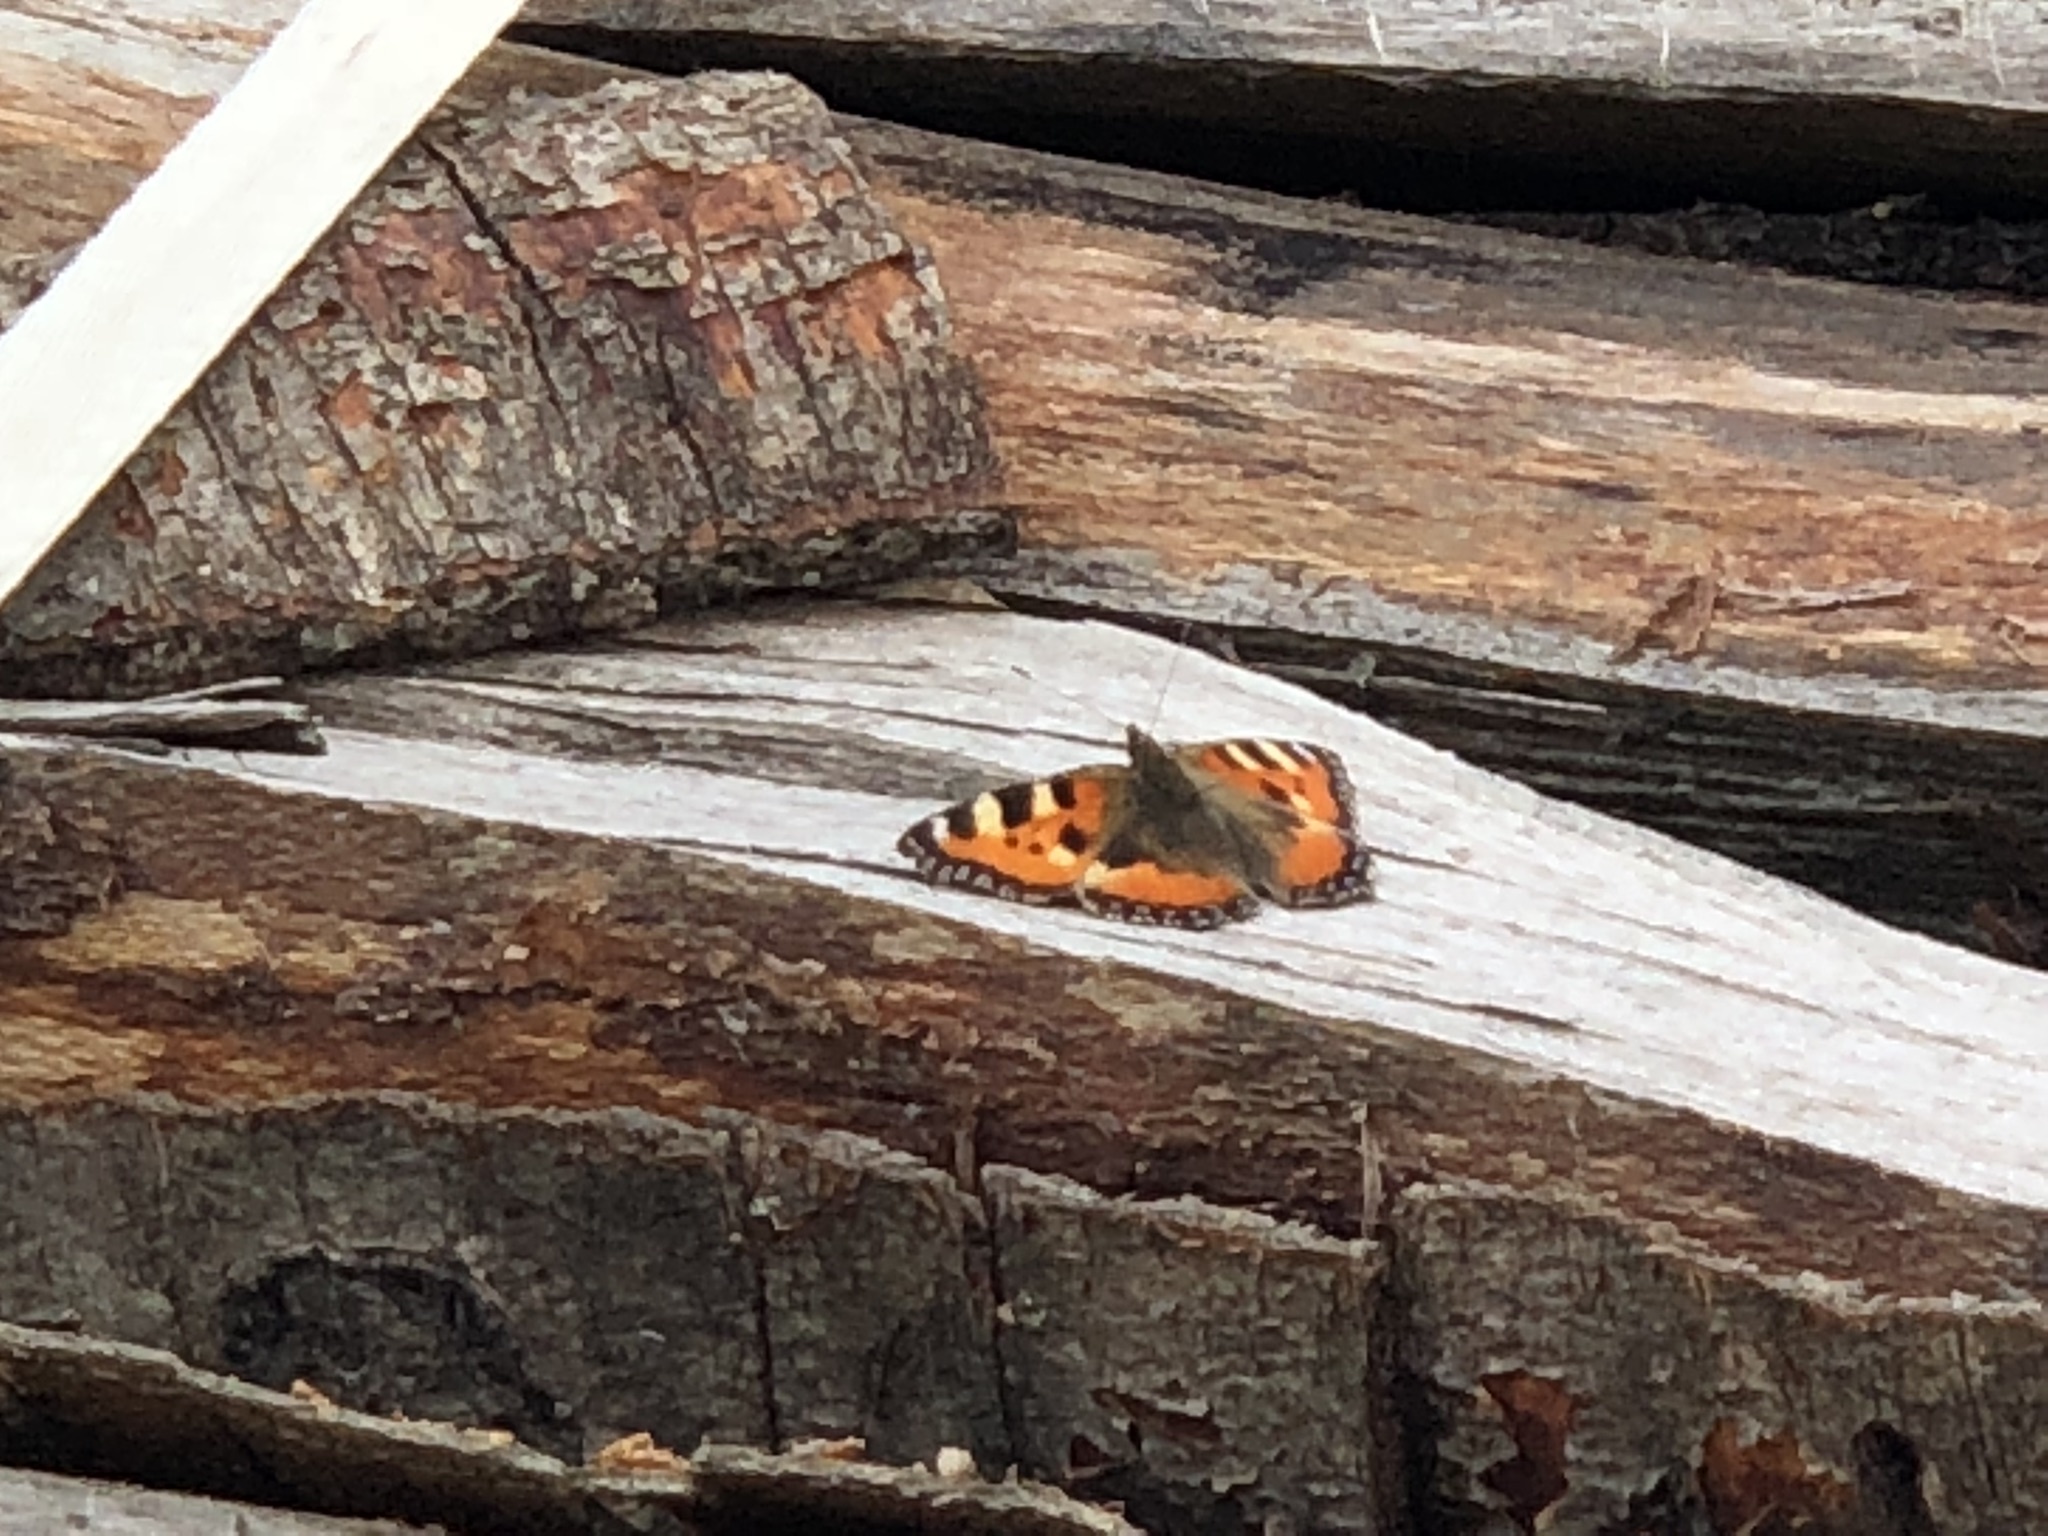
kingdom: Animalia
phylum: Arthropoda
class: Insecta
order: Lepidoptera
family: Nymphalidae
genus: Aglais
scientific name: Aglais urticae
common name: Small tortoiseshell
